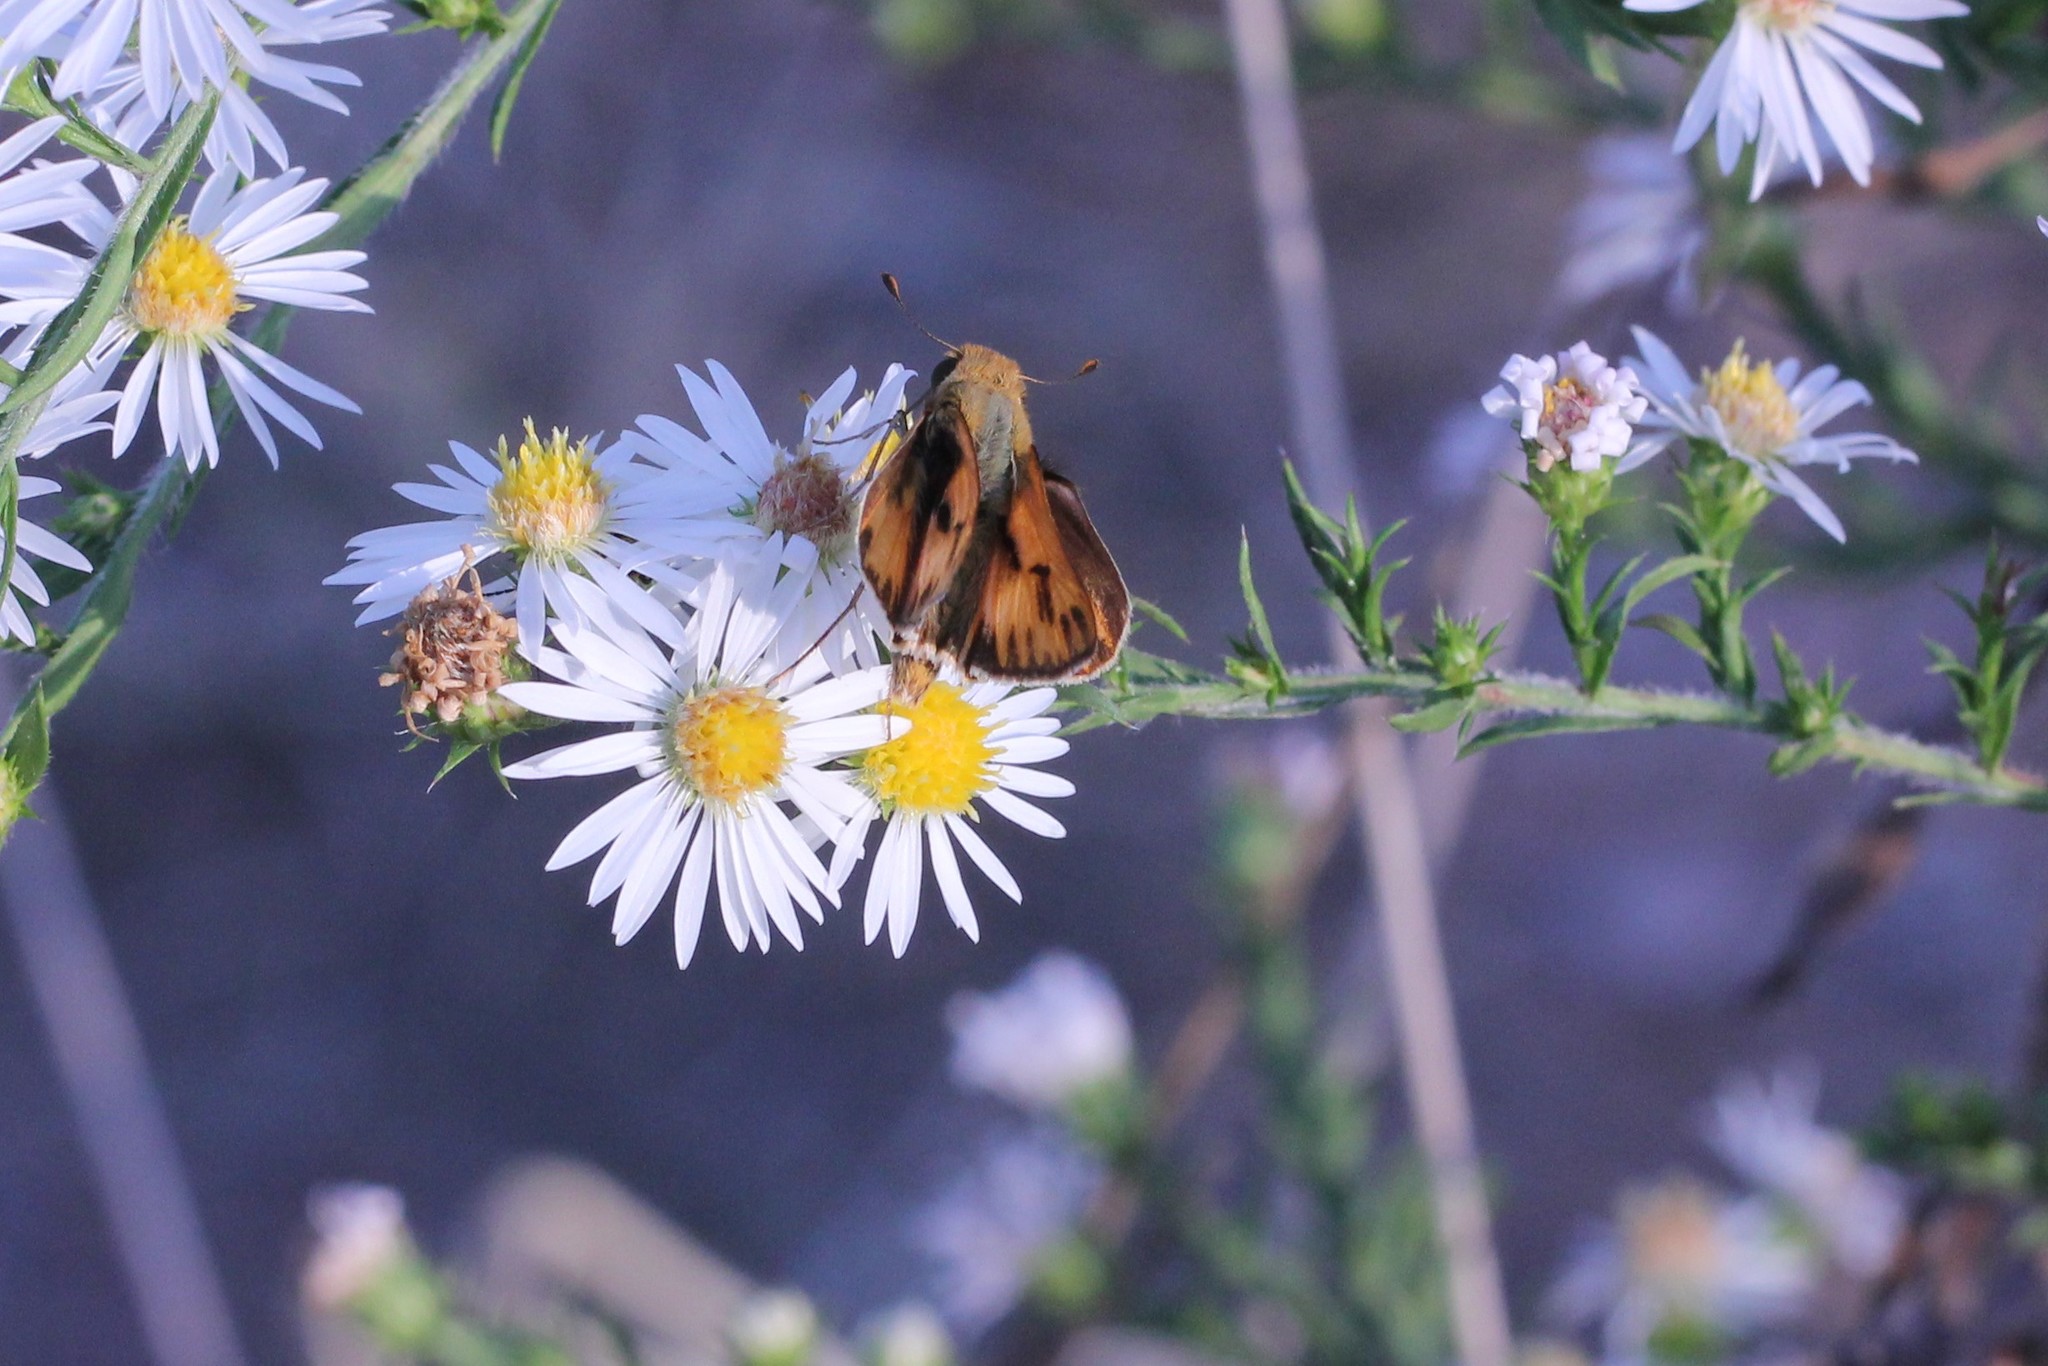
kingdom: Animalia
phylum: Arthropoda
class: Insecta
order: Lepidoptera
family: Hesperiidae
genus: Hylephila
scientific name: Hylephila phyleus
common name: Fiery skipper
